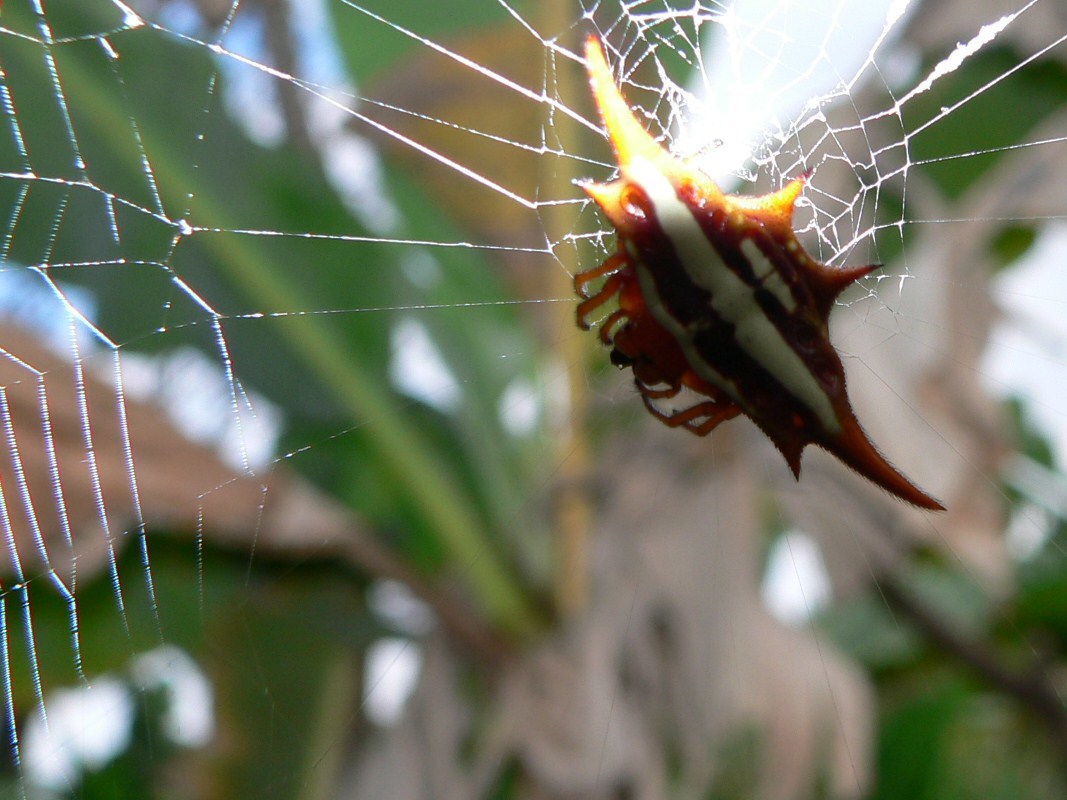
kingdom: Animalia
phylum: Arthropoda
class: Arachnida
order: Araneae
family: Araneidae
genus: Gasteracantha
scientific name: Gasteracantha versicolor
